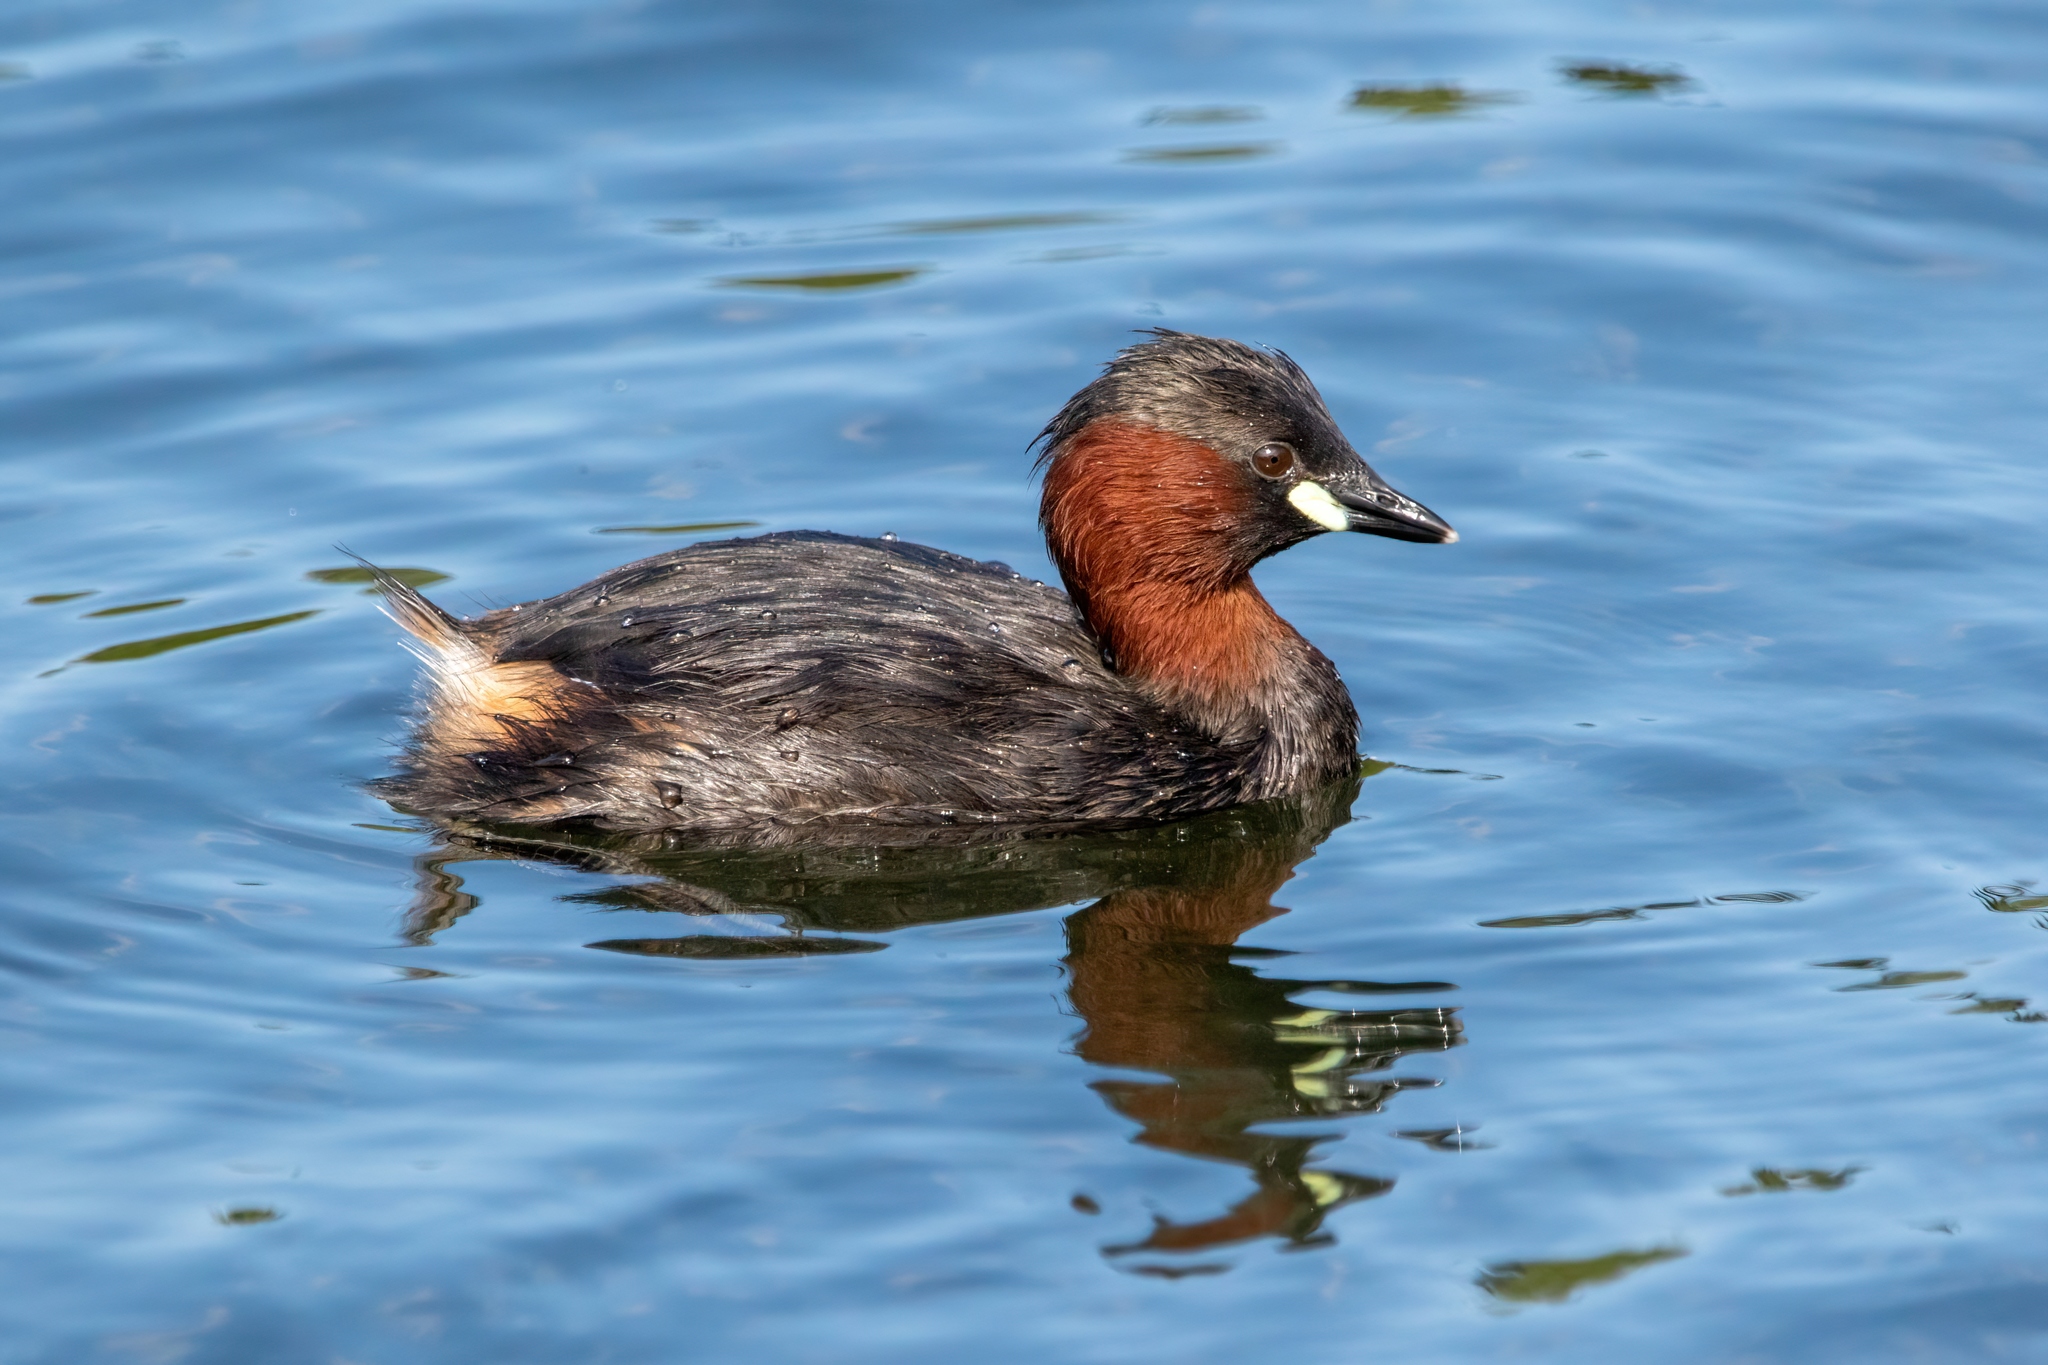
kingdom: Animalia
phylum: Chordata
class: Aves
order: Podicipediformes
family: Podicipedidae
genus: Tachybaptus
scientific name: Tachybaptus ruficollis
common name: Little grebe
